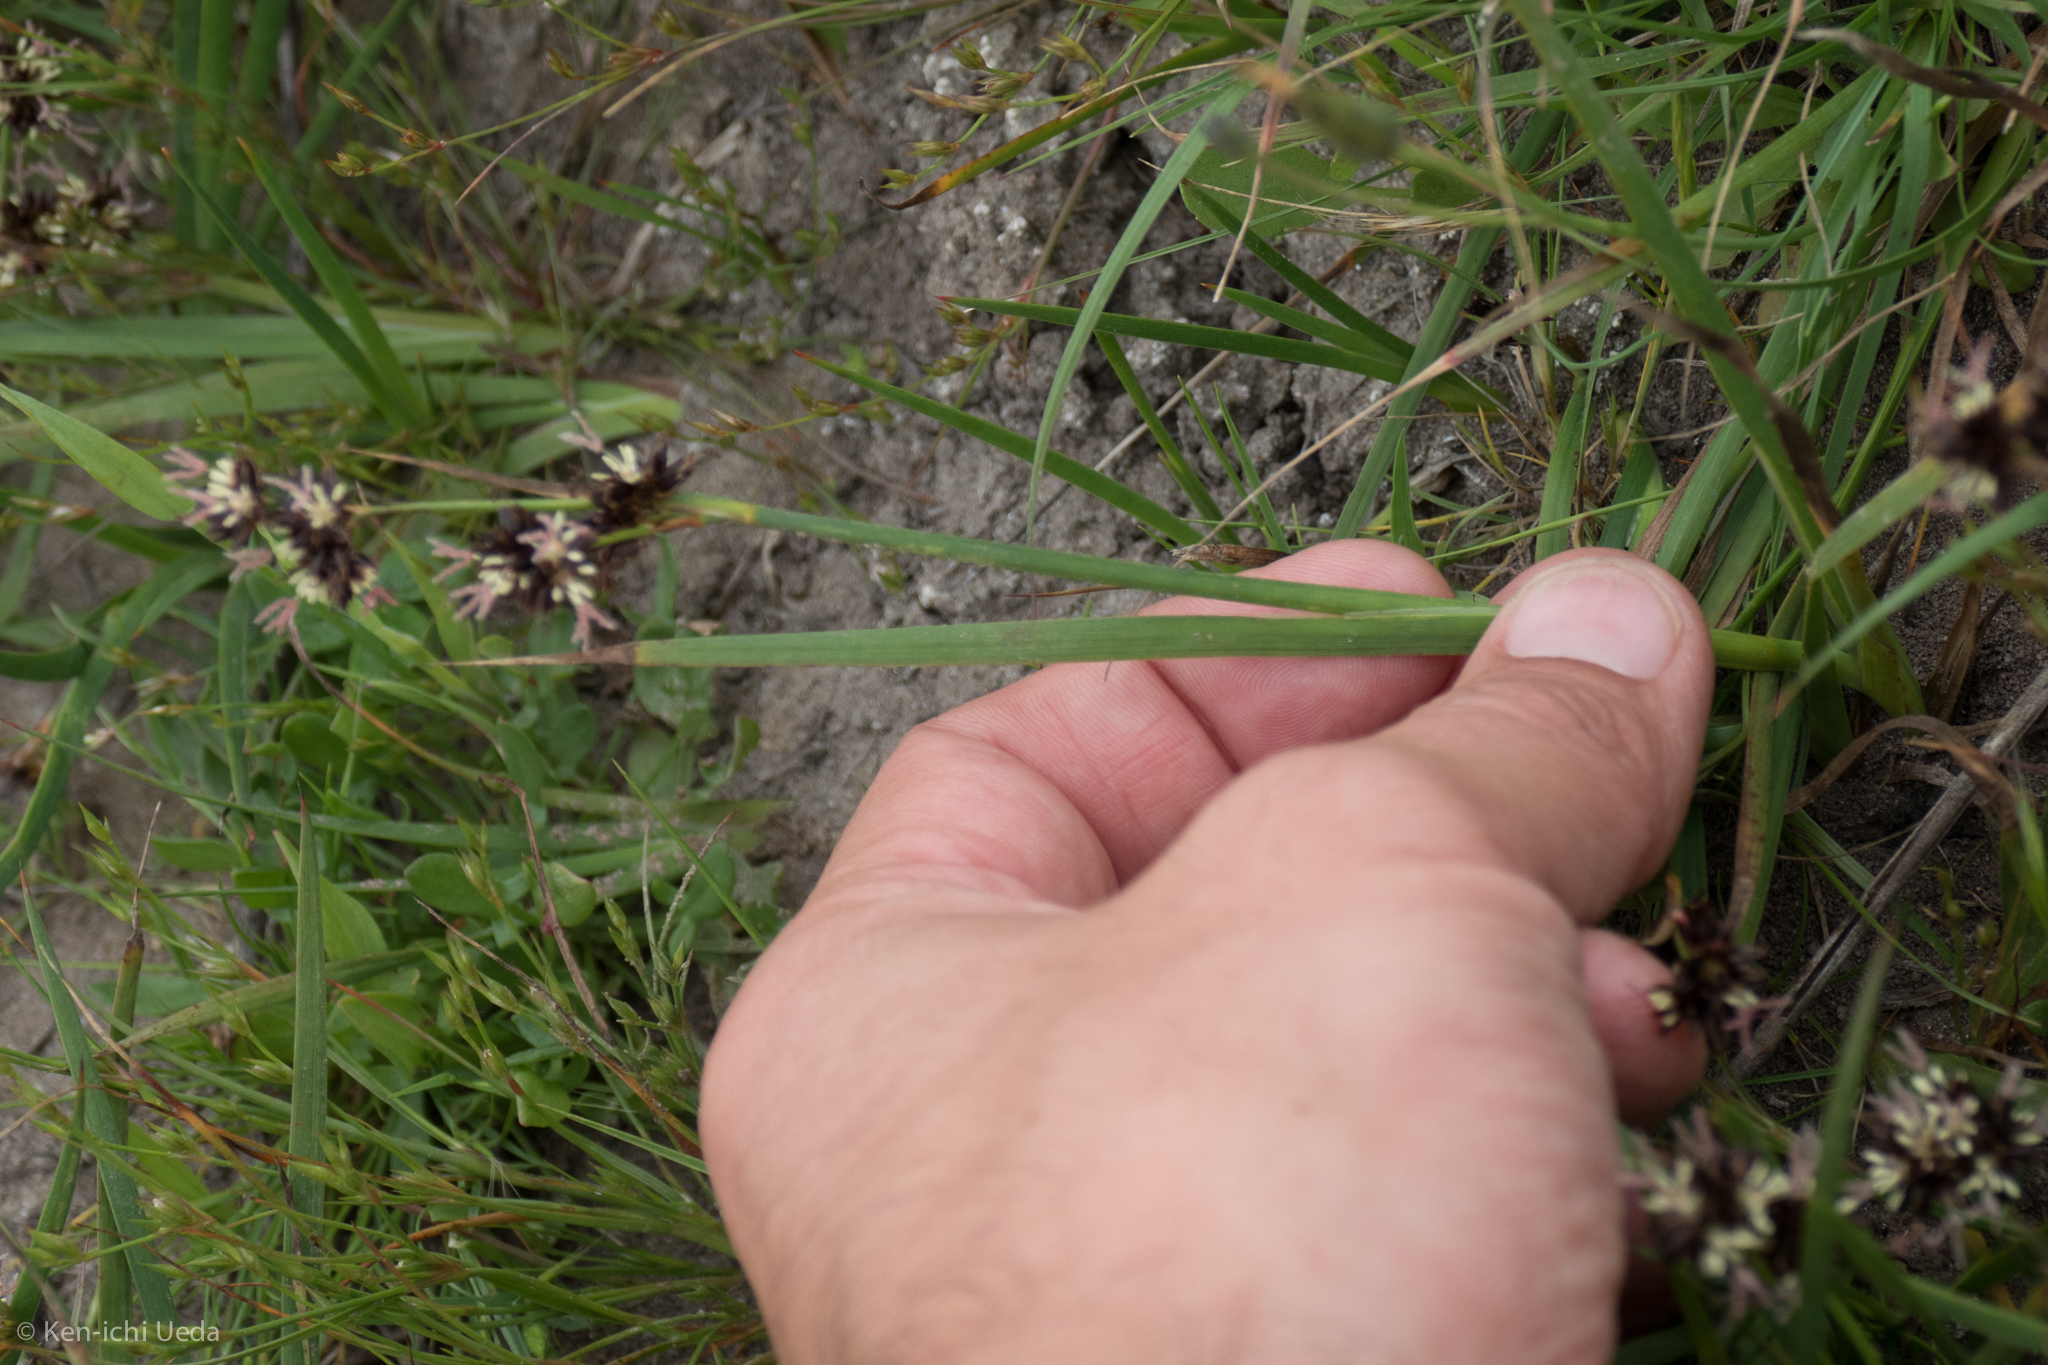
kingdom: Plantae
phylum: Tracheophyta
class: Liliopsida
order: Poales
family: Juncaceae
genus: Juncus
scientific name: Juncus phaeocephalus
